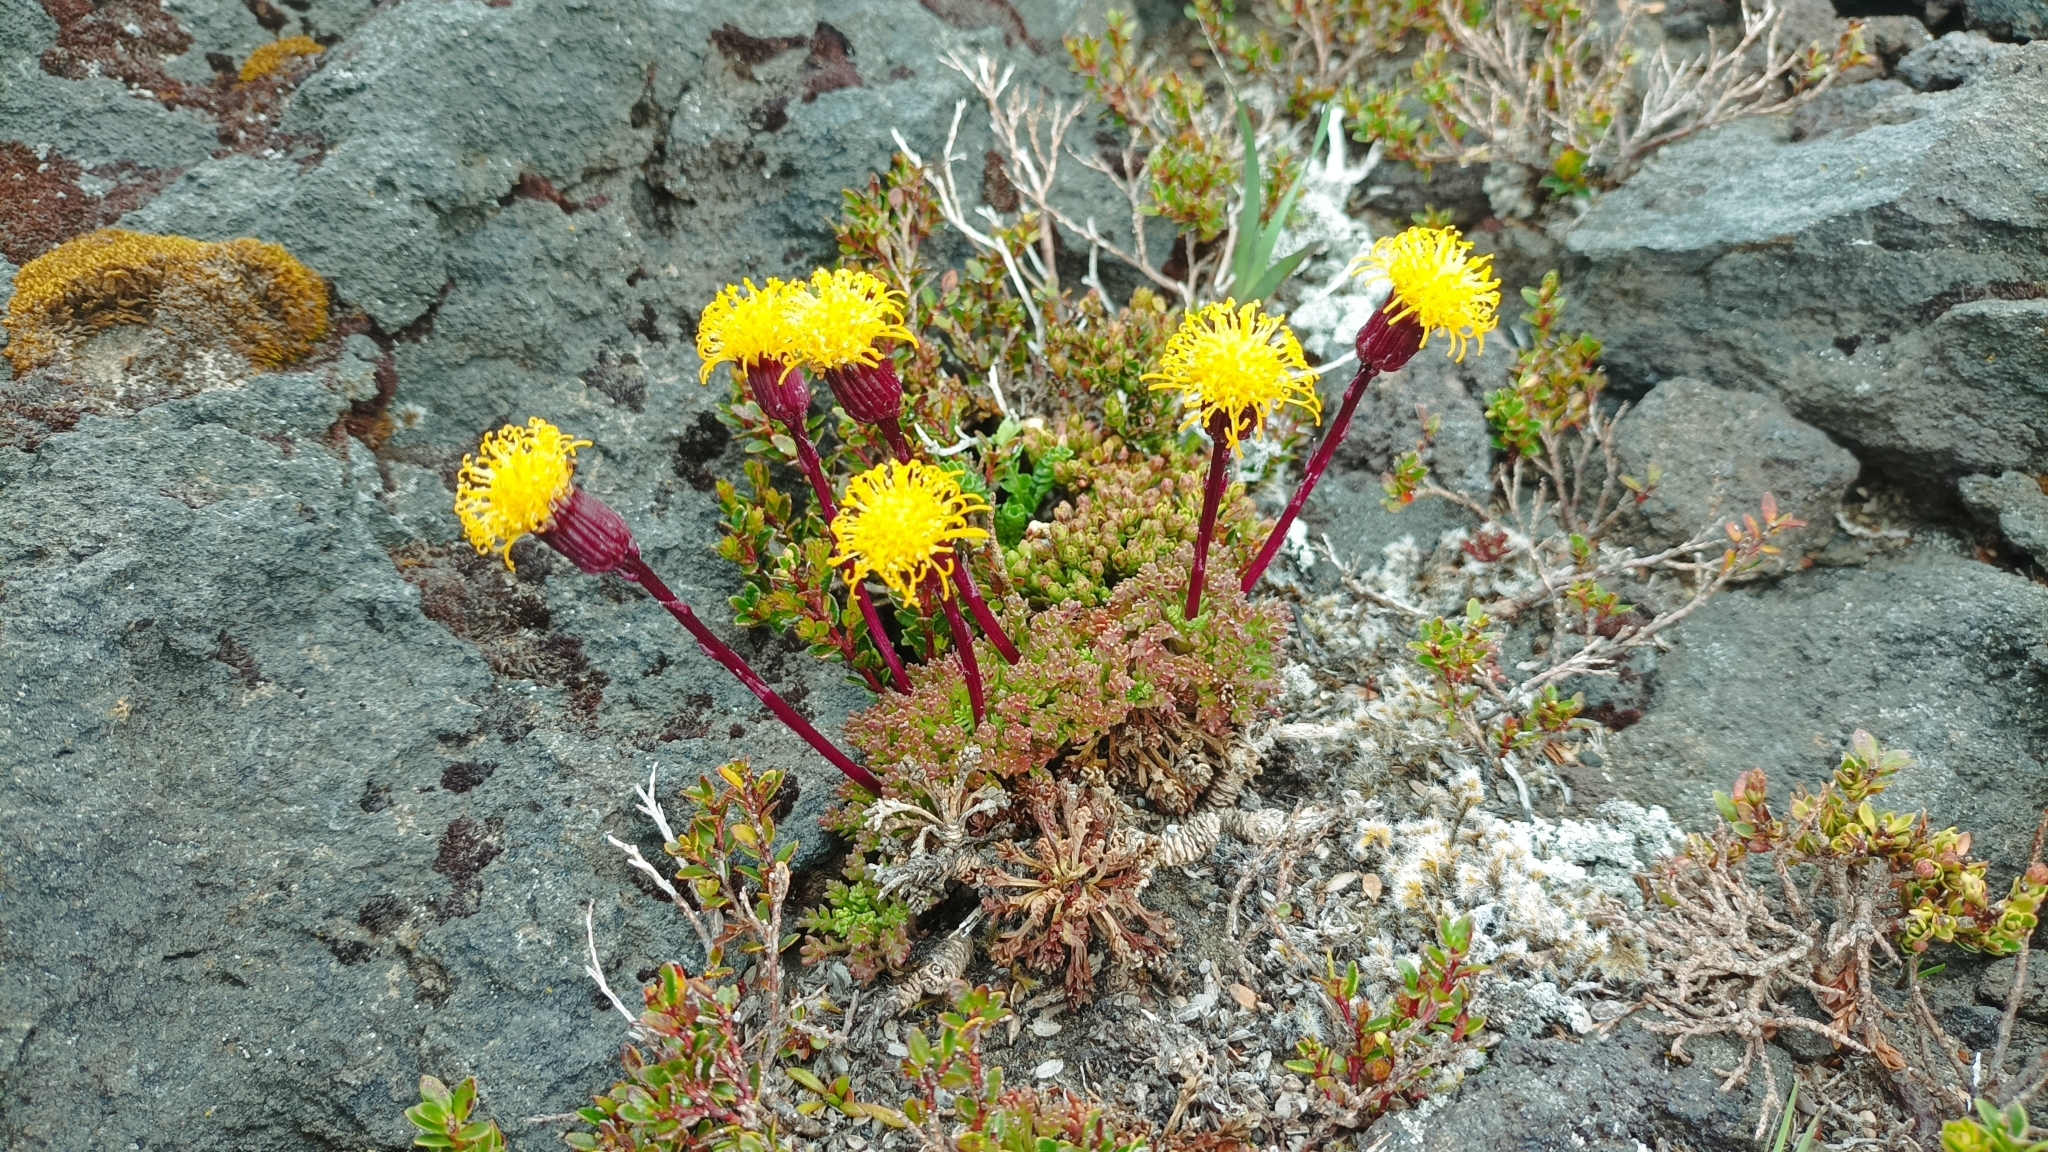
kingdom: Plantae
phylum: Tracheophyta
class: Magnoliopsida
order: Asterales
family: Asteraceae
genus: Senecio
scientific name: Senecio kingii
